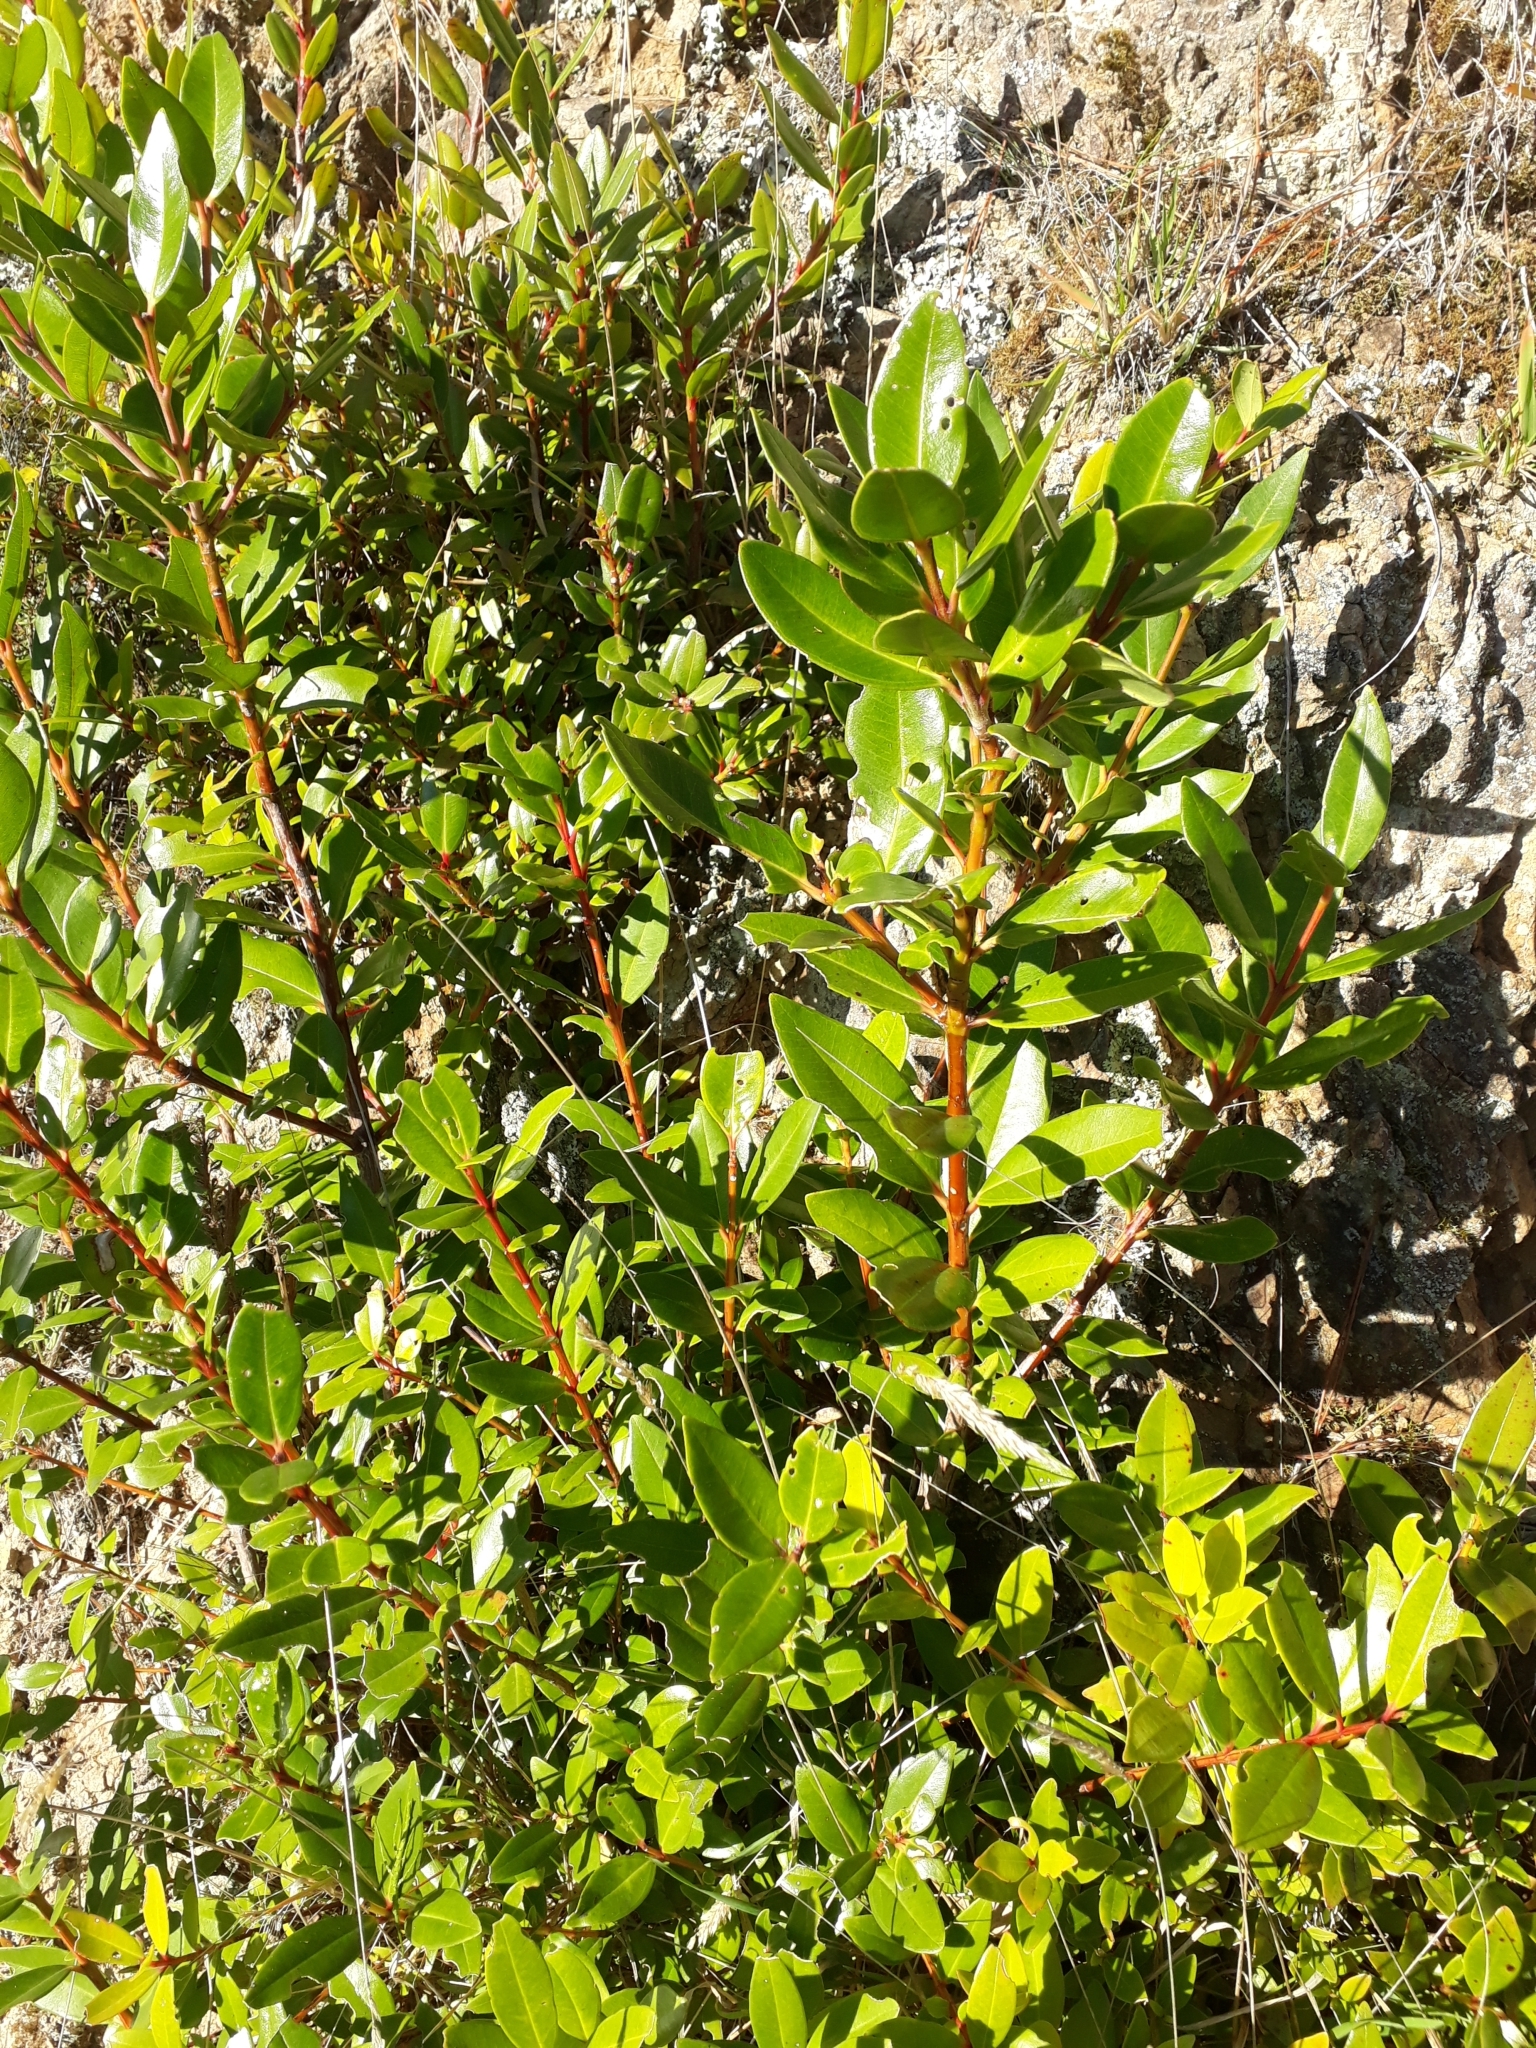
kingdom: Plantae
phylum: Tracheophyta
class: Magnoliopsida
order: Myrtales
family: Myrtaceae
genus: Metrosideros
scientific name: Metrosideros excelsa
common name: New zealand christmastree
